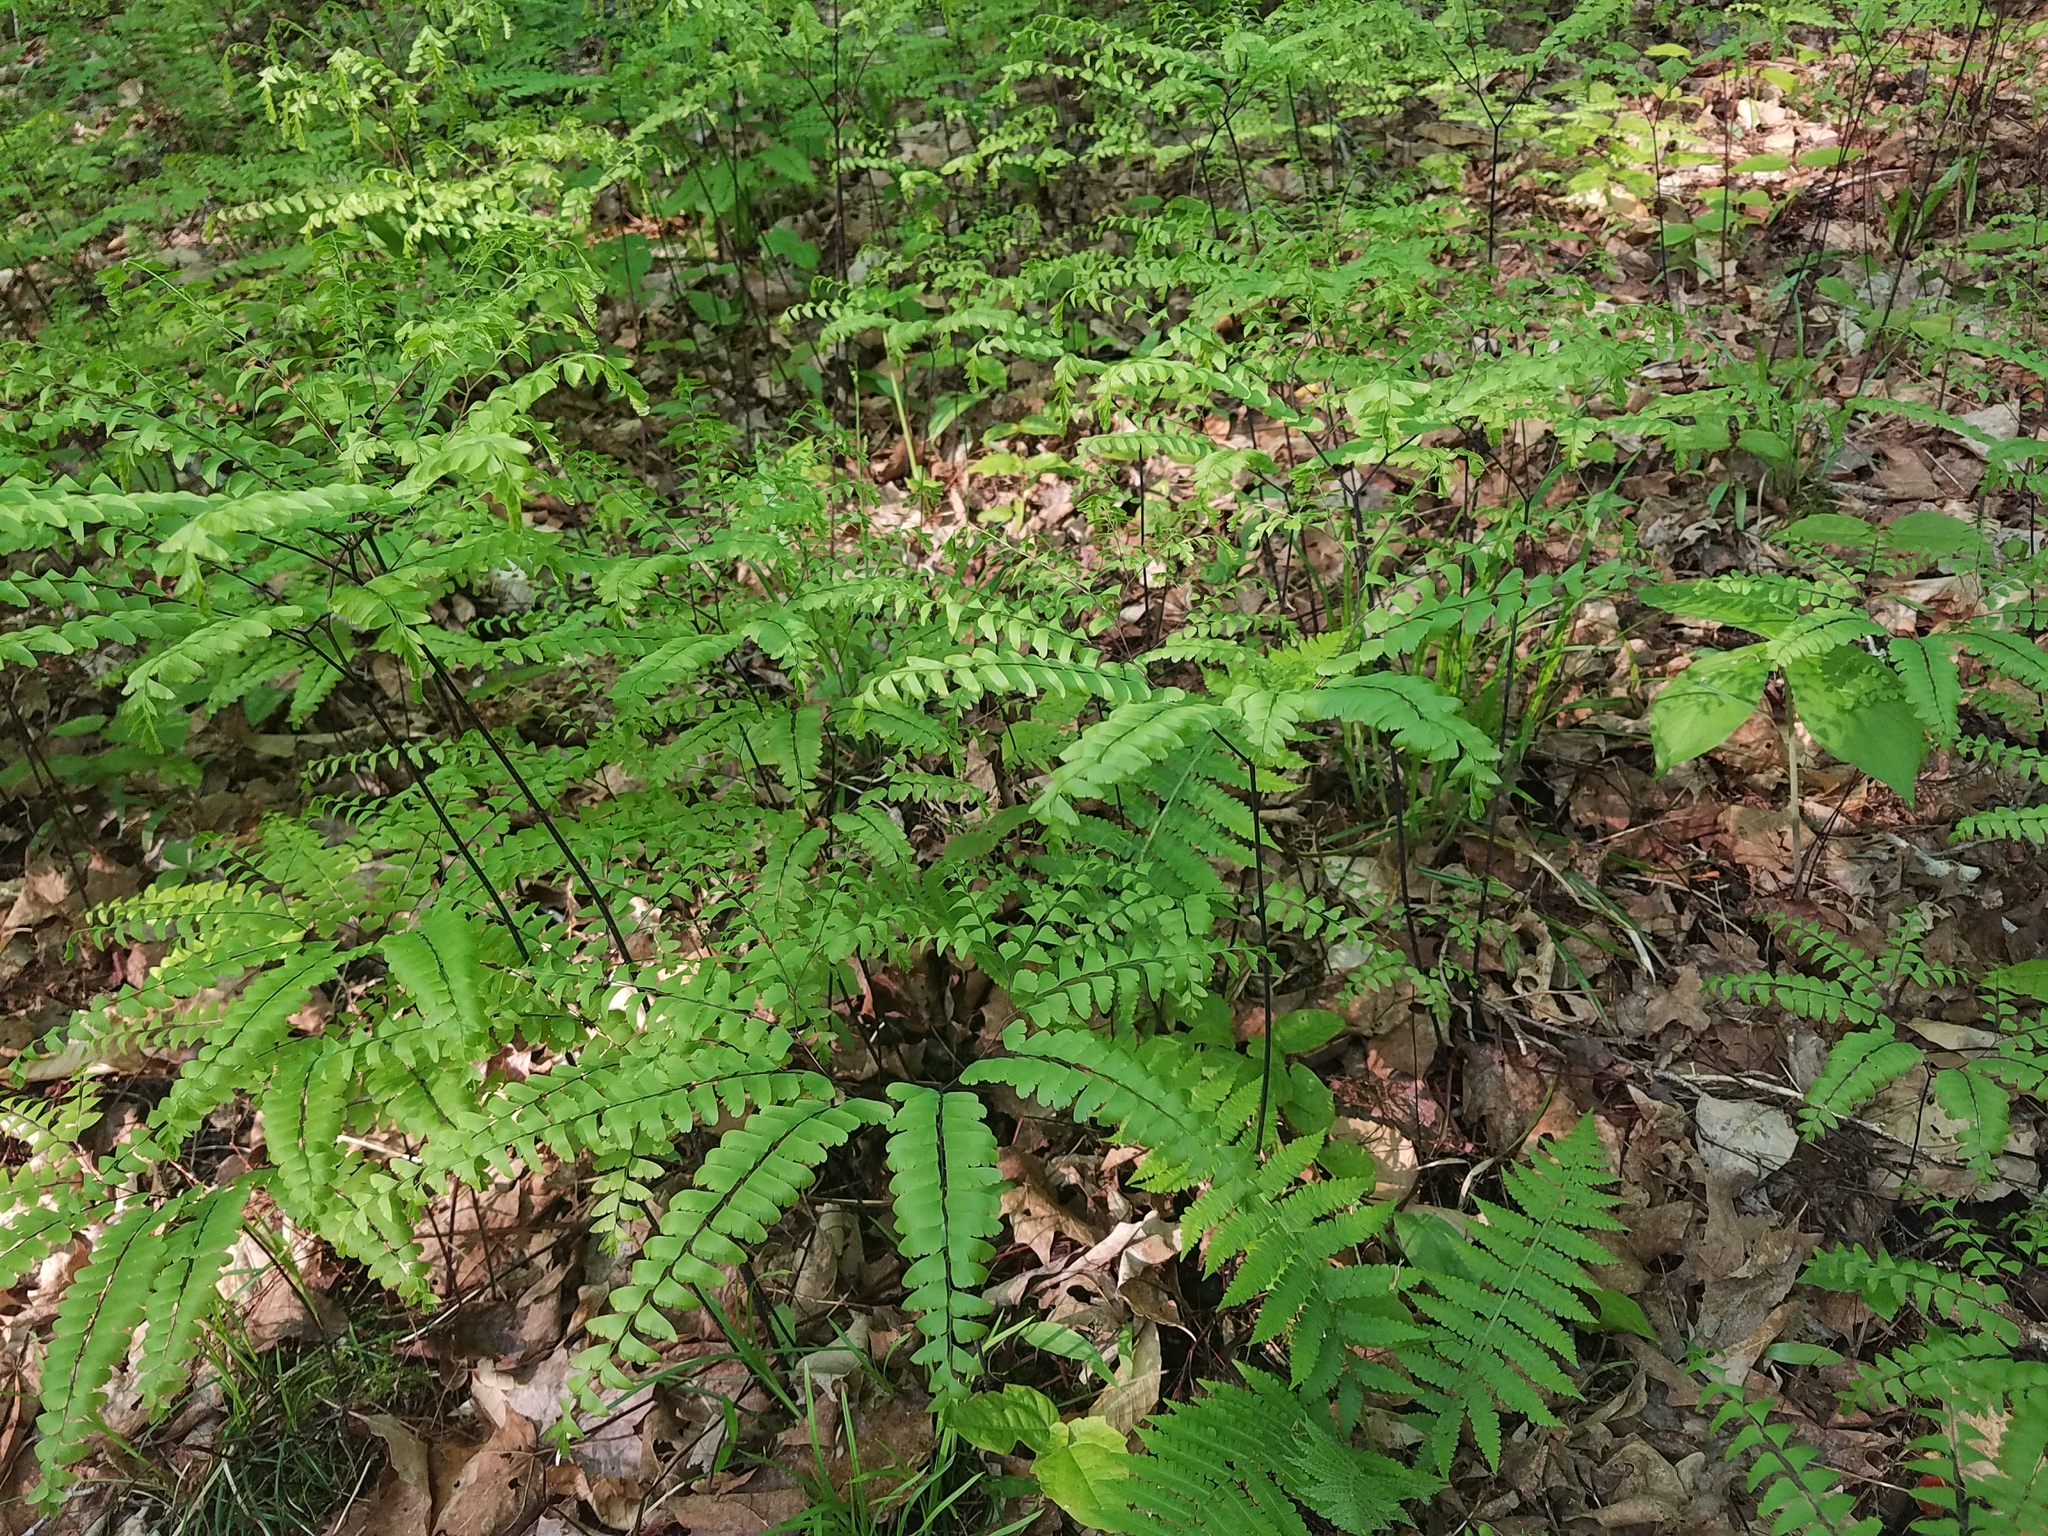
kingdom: Plantae
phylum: Tracheophyta
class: Polypodiopsida
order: Polypodiales
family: Pteridaceae
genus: Adiantum
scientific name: Adiantum pedatum
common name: Five-finger fern
